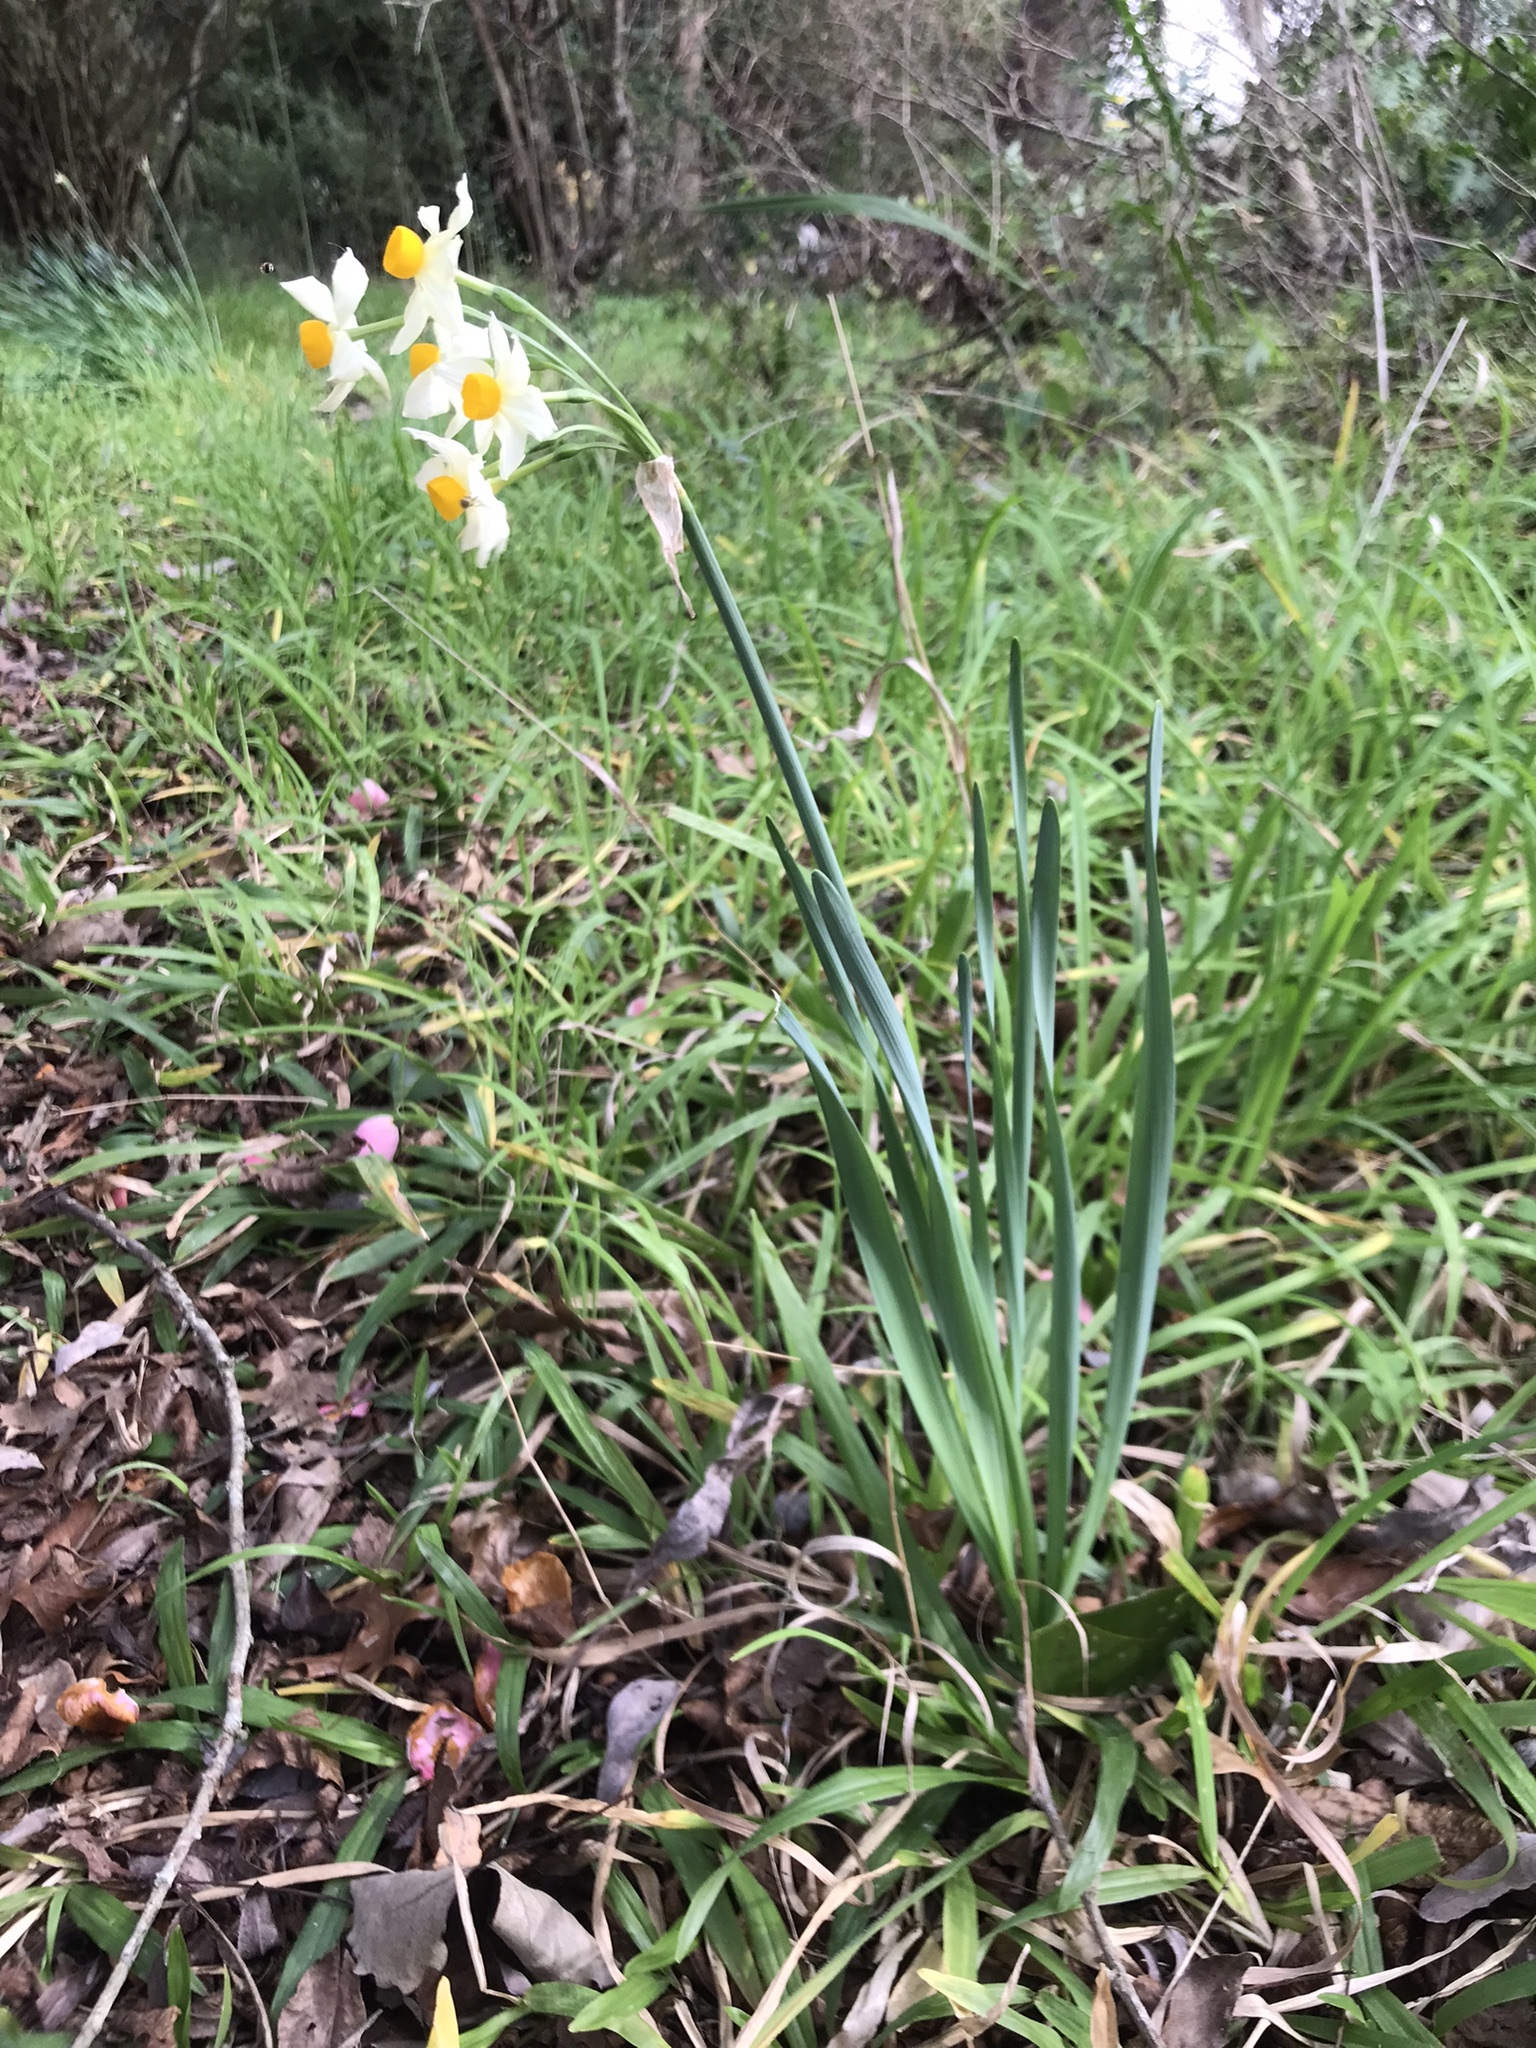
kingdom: Plantae
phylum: Tracheophyta
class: Liliopsida
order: Asparagales
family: Amaryllidaceae
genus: Narcissus
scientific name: Narcissus tazetta
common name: Bunch-flowered daffodil
